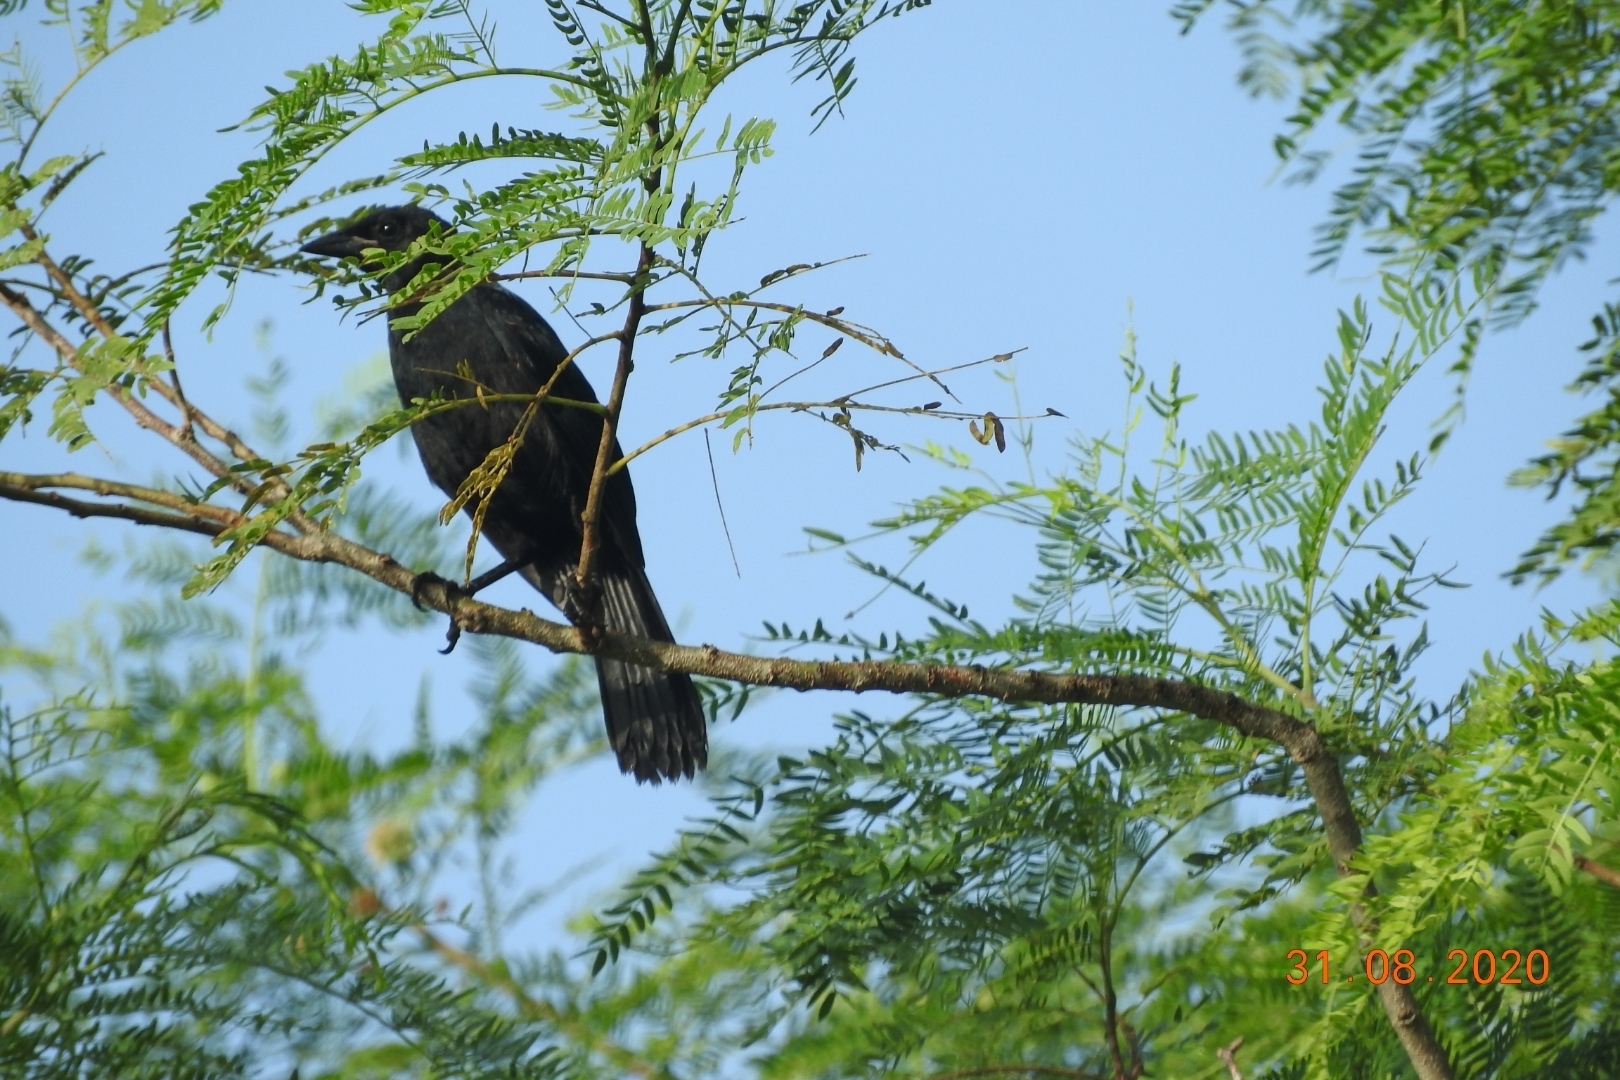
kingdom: Animalia
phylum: Chordata
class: Aves
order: Passeriformes
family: Icteridae
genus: Dives
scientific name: Dives dives
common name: Melodious blackbird
